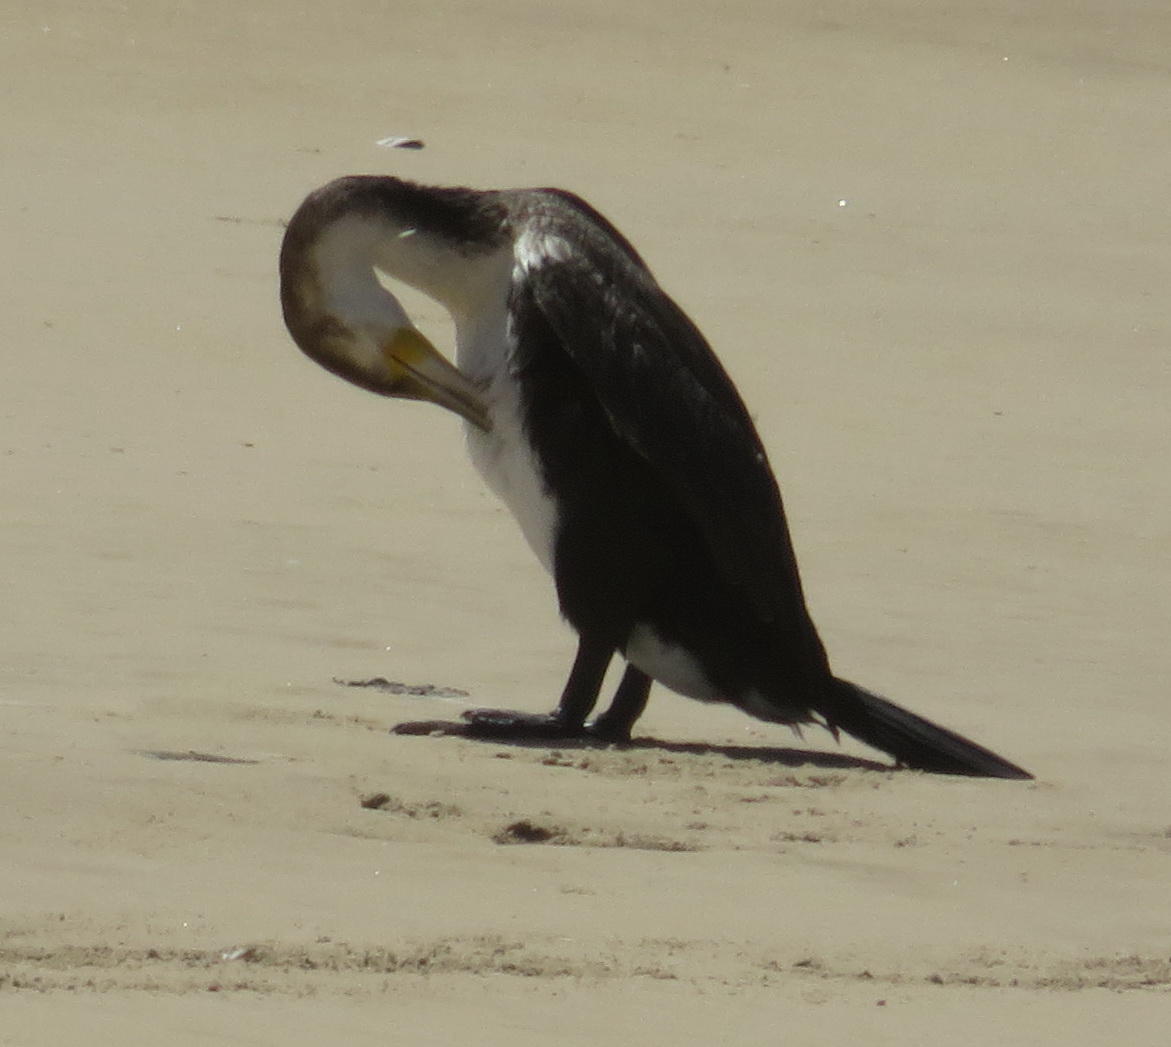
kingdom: Animalia
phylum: Chordata
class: Aves
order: Suliformes
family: Phalacrocoracidae
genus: Phalacrocorax
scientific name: Phalacrocorax carbo
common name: Great cormorant
